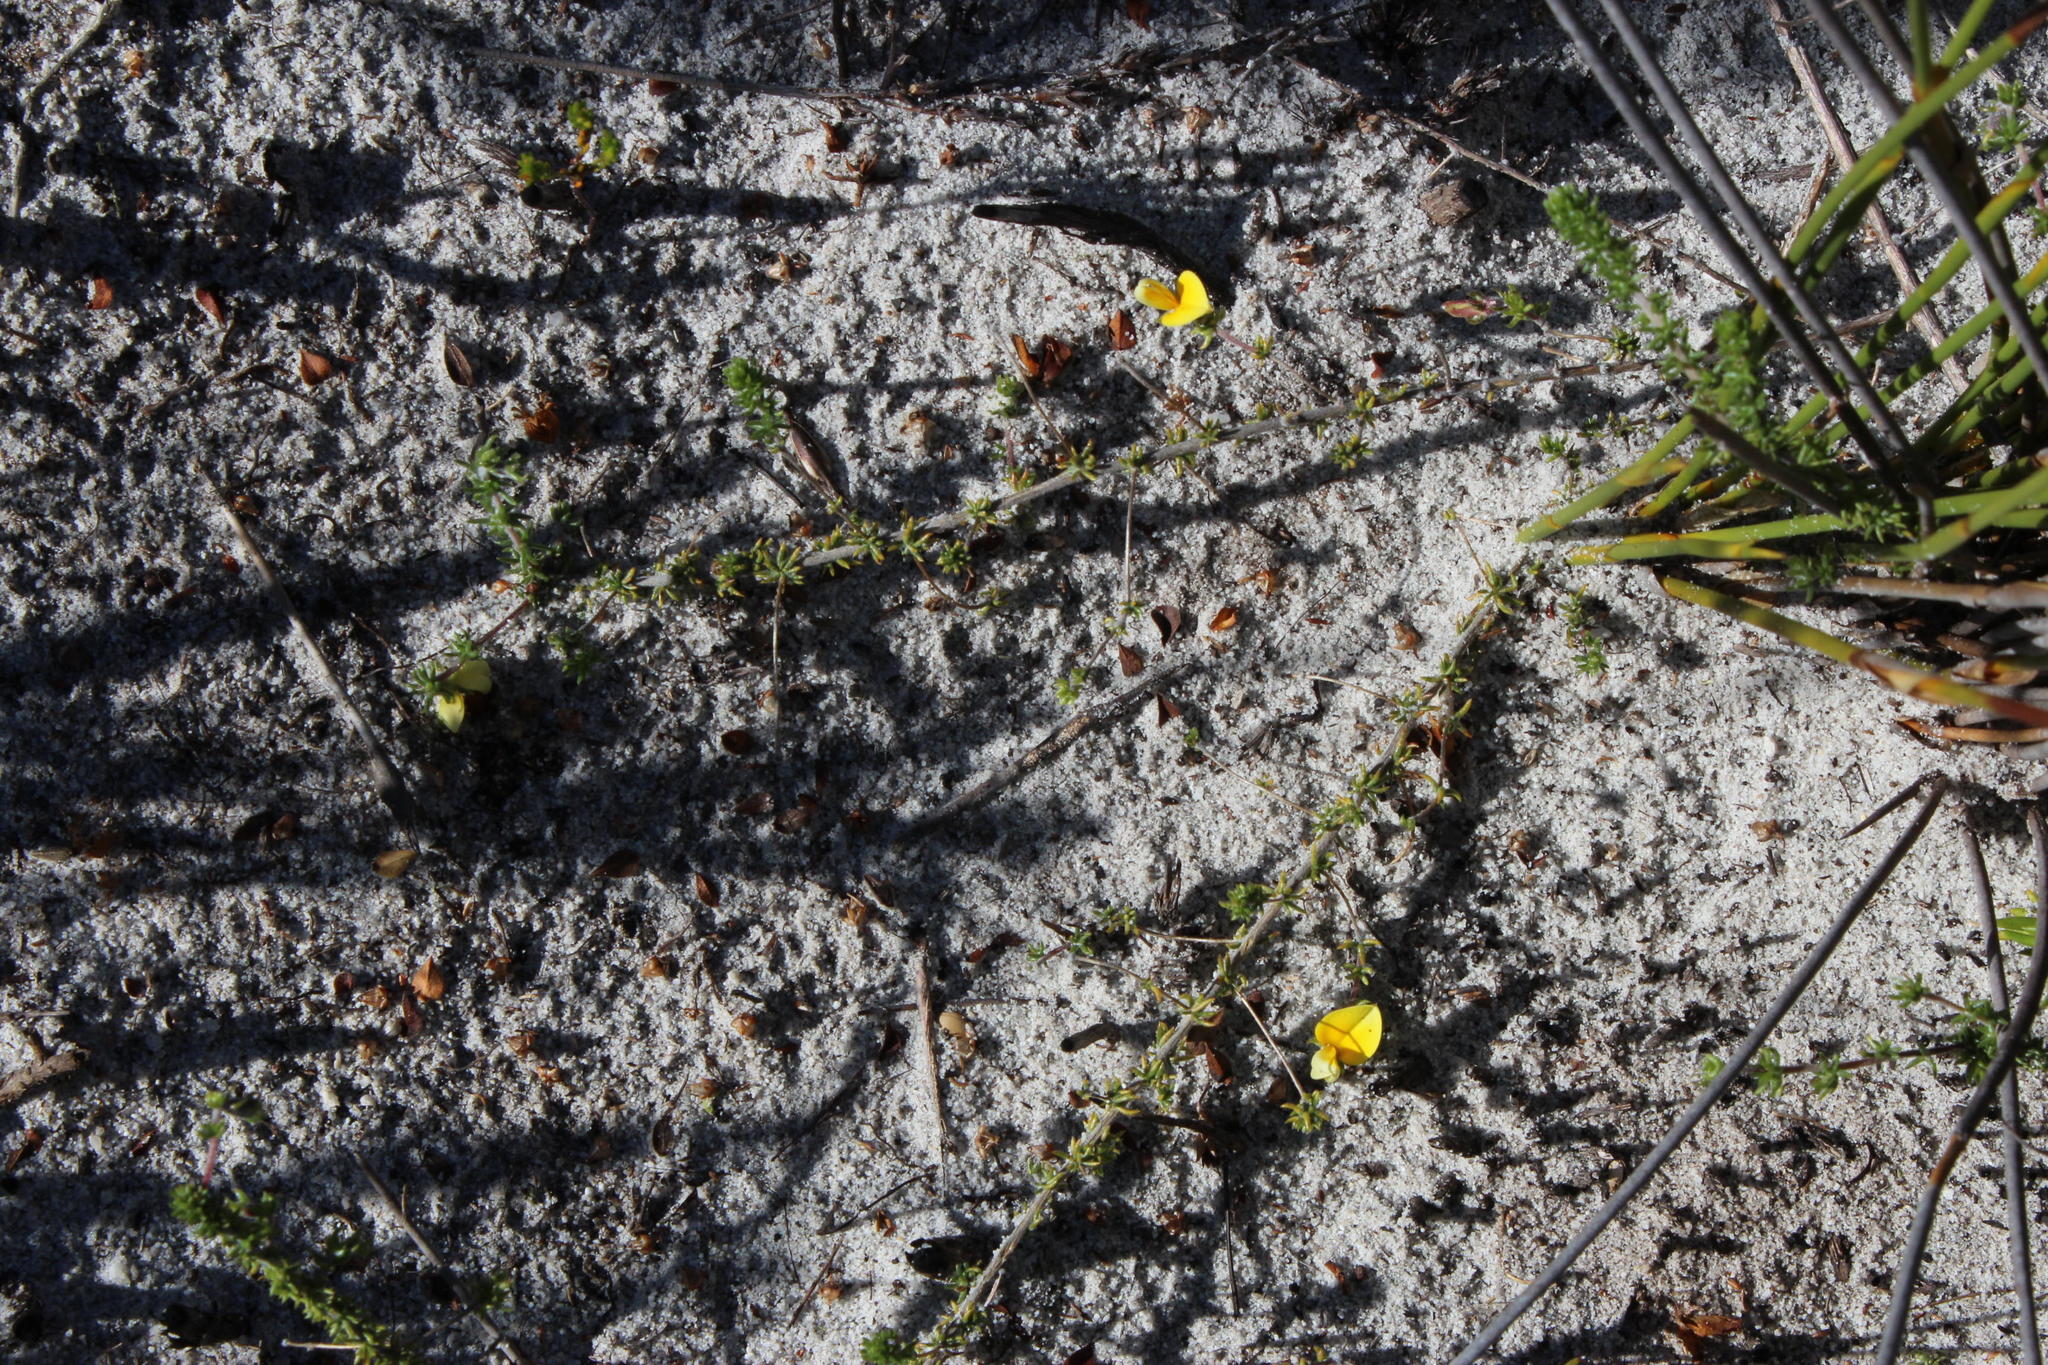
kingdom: Plantae
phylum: Tracheophyta
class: Magnoliopsida
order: Fabales
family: Fabaceae
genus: Aspalathus
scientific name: Aspalathus retroflexa
